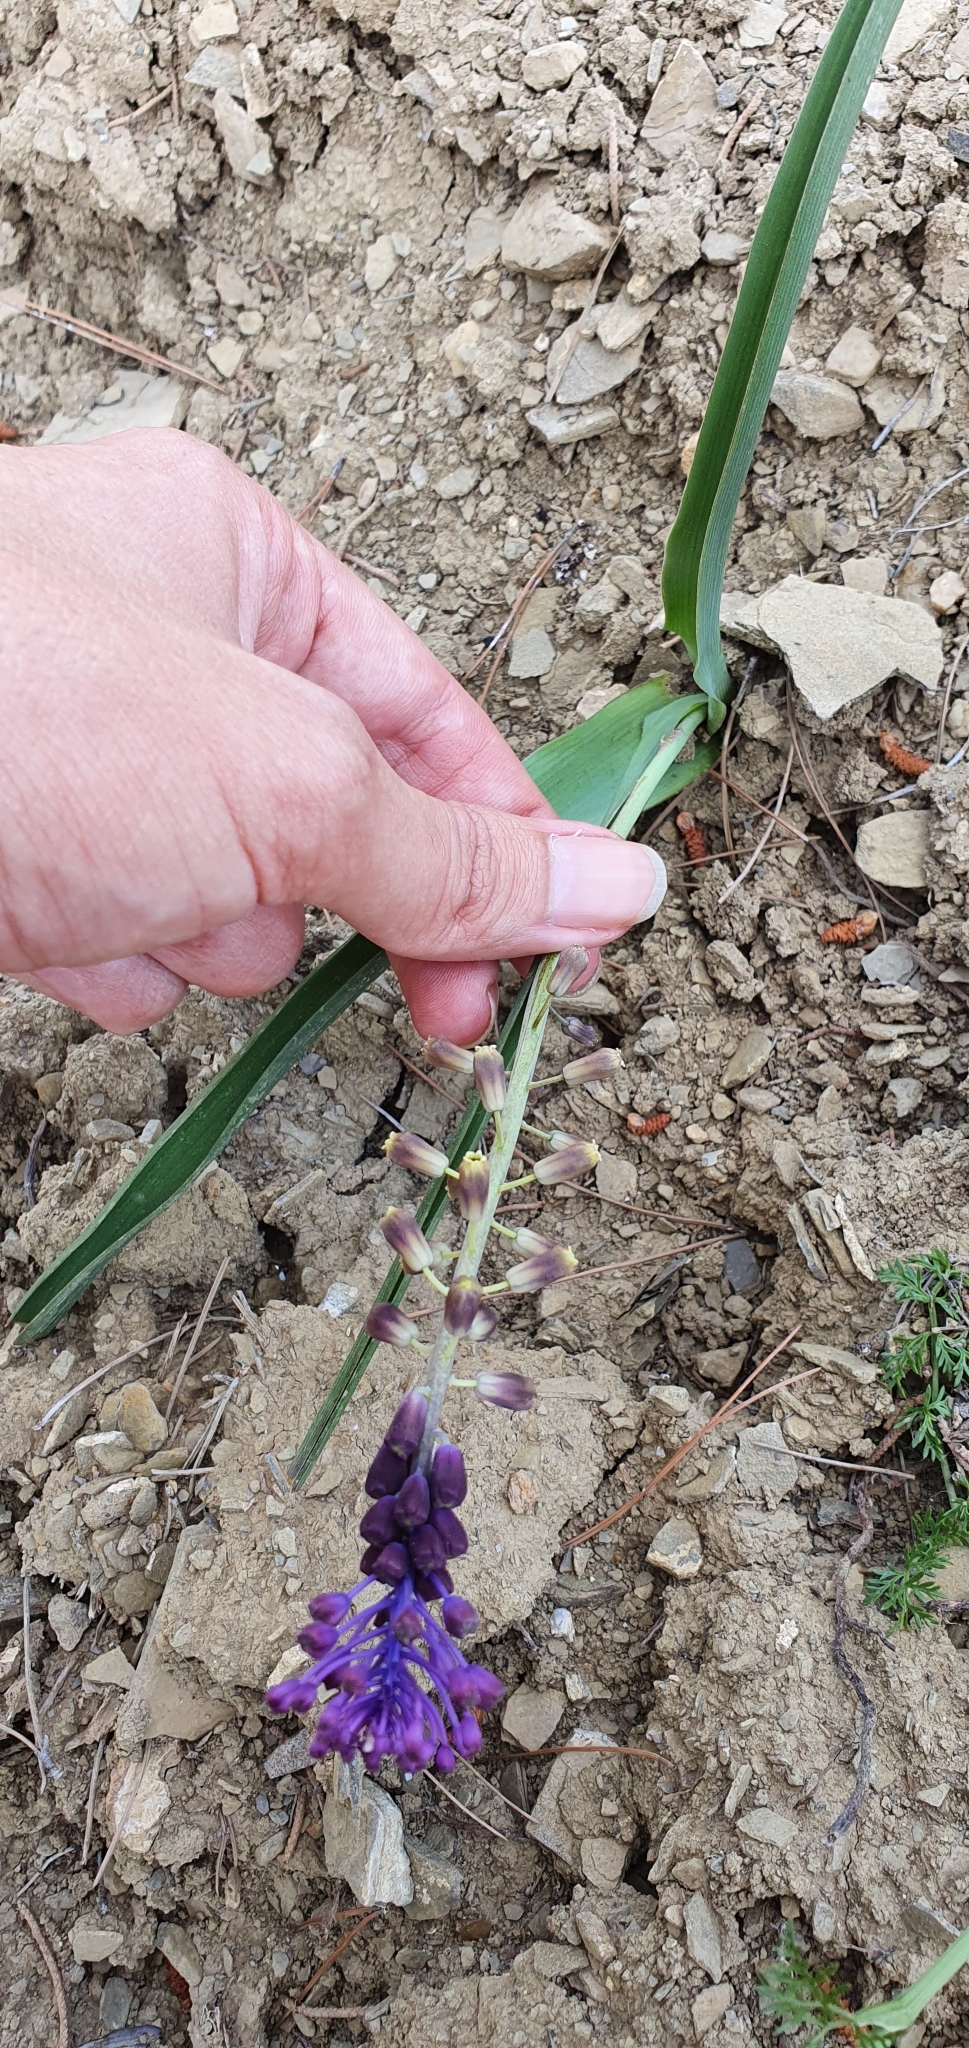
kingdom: Plantae
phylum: Tracheophyta
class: Liliopsida
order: Asparagales
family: Asparagaceae
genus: Muscari
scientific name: Muscari comosum
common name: Tassel hyacinth
